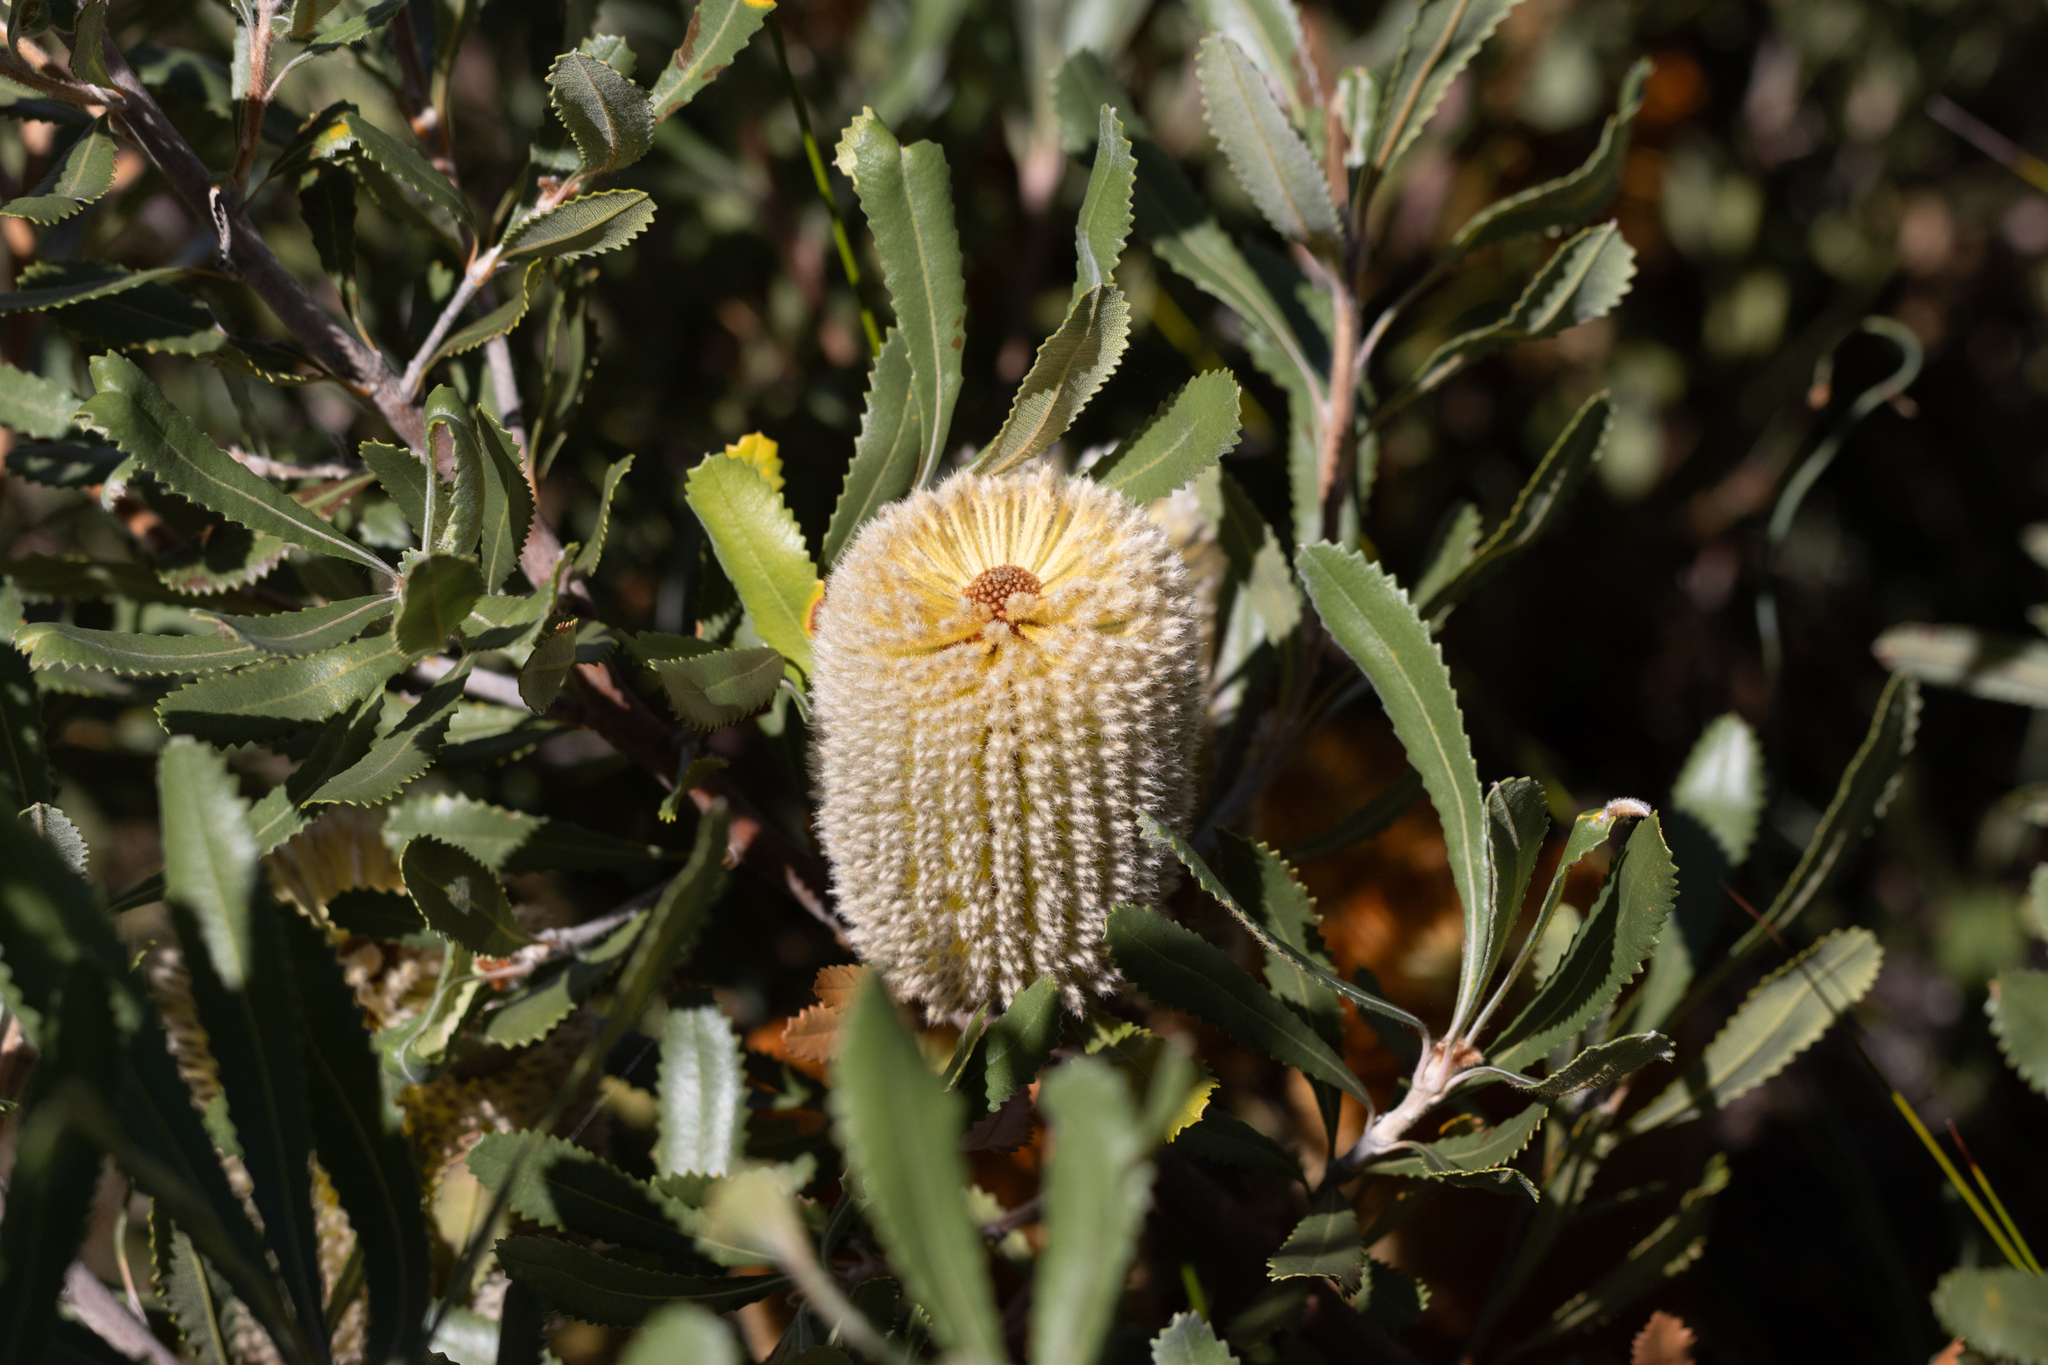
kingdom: Plantae
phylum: Tracheophyta
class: Magnoliopsida
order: Proteales
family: Proteaceae
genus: Banksia
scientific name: Banksia ornata
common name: Desert banksia
